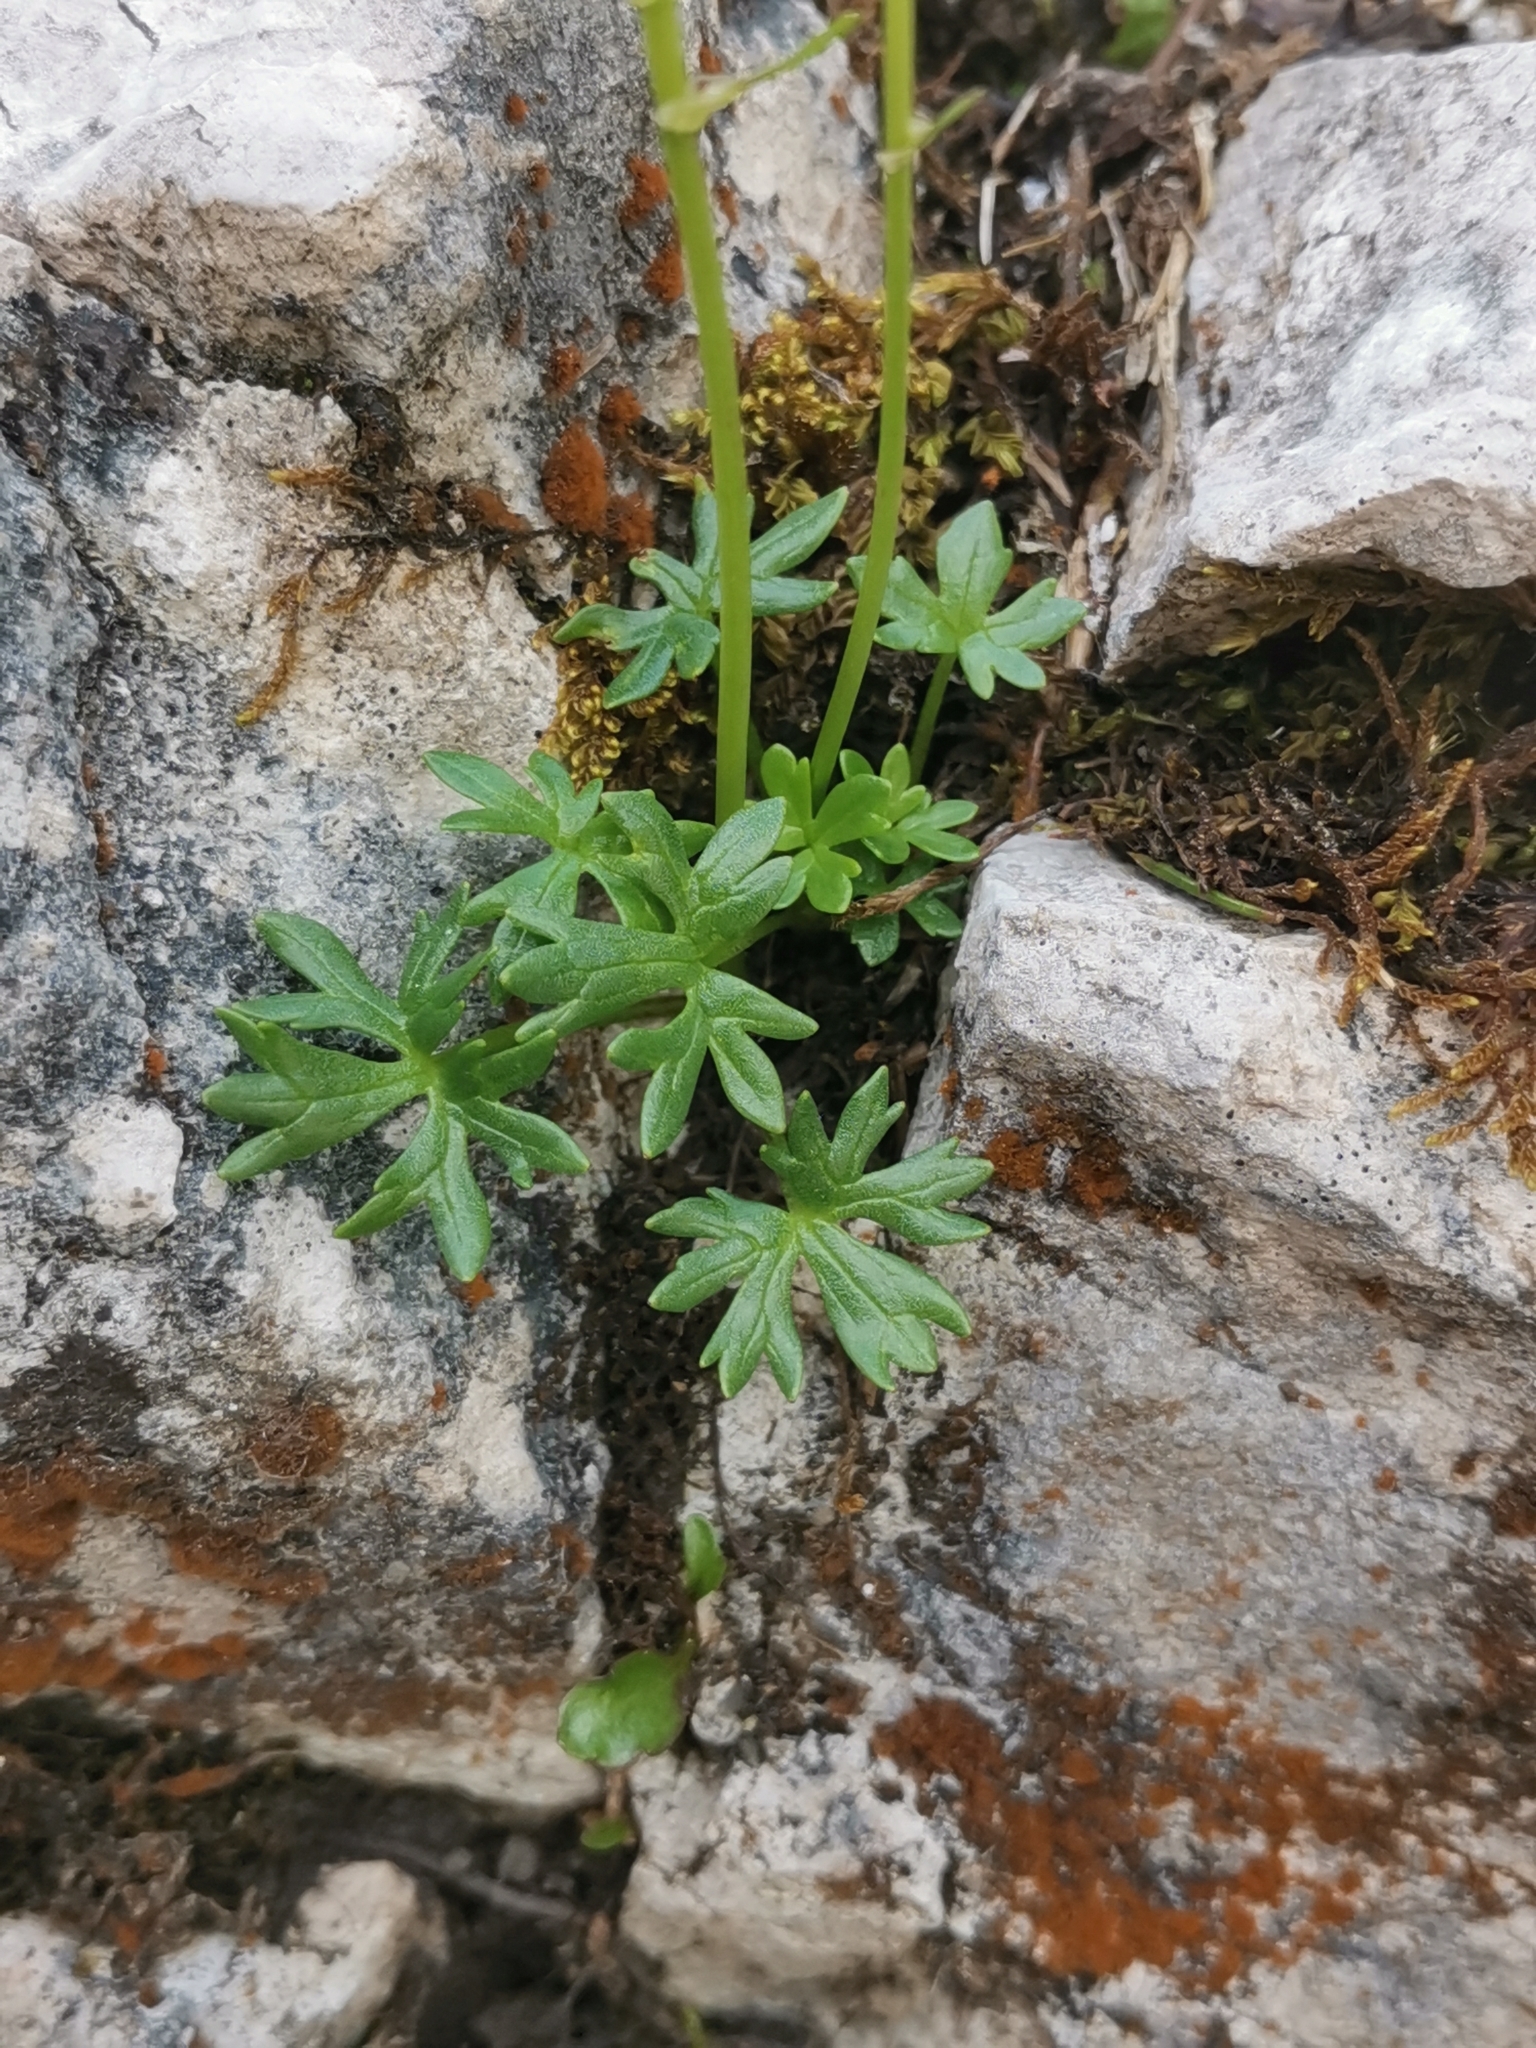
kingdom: Plantae
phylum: Tracheophyta
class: Magnoliopsida
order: Ranunculales
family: Ranunculaceae
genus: Ranunculus
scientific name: Ranunculus traunfellneri
